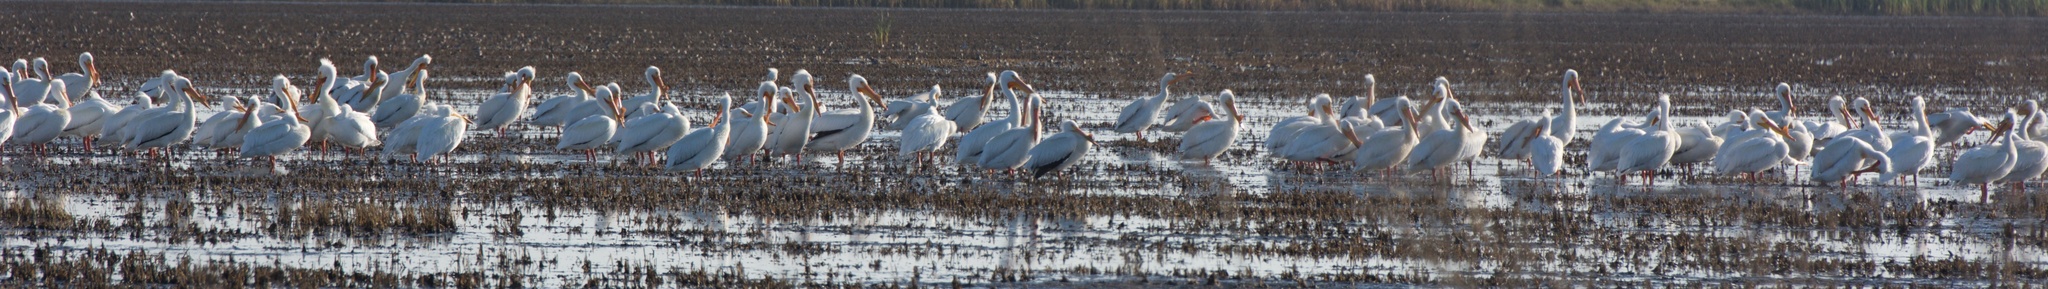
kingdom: Animalia
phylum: Chordata
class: Aves
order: Pelecaniformes
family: Pelecanidae
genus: Pelecanus
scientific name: Pelecanus erythrorhynchos
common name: American white pelican
